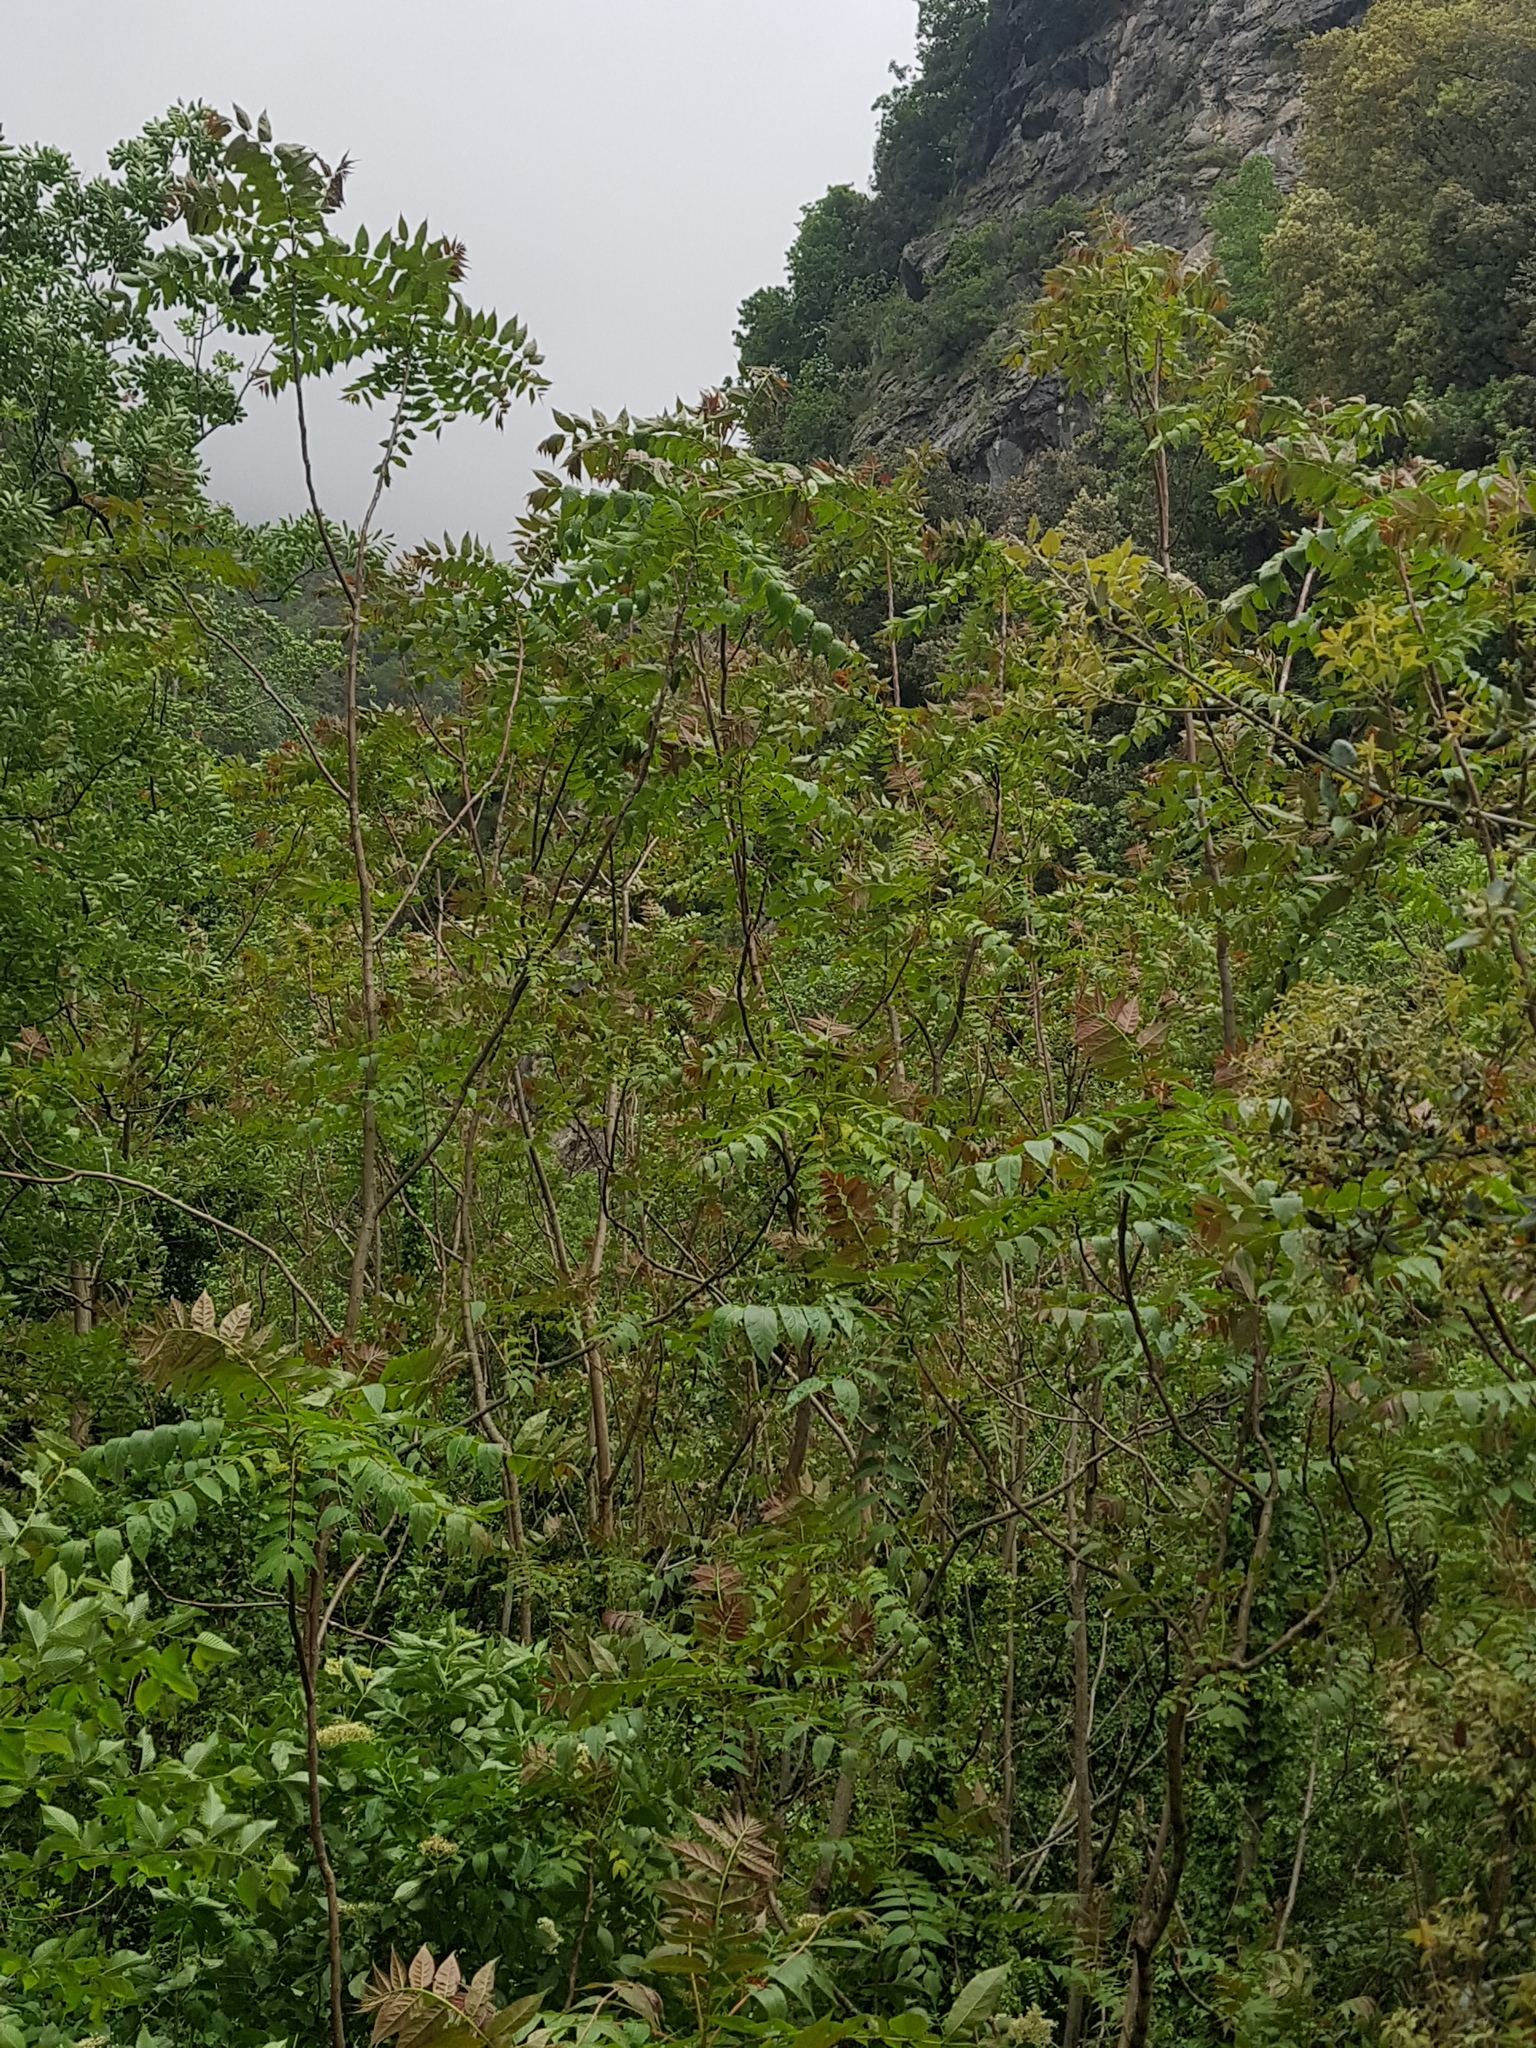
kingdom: Plantae
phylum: Tracheophyta
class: Magnoliopsida
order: Sapindales
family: Simaroubaceae
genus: Ailanthus
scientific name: Ailanthus altissima
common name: Tree-of-heaven
